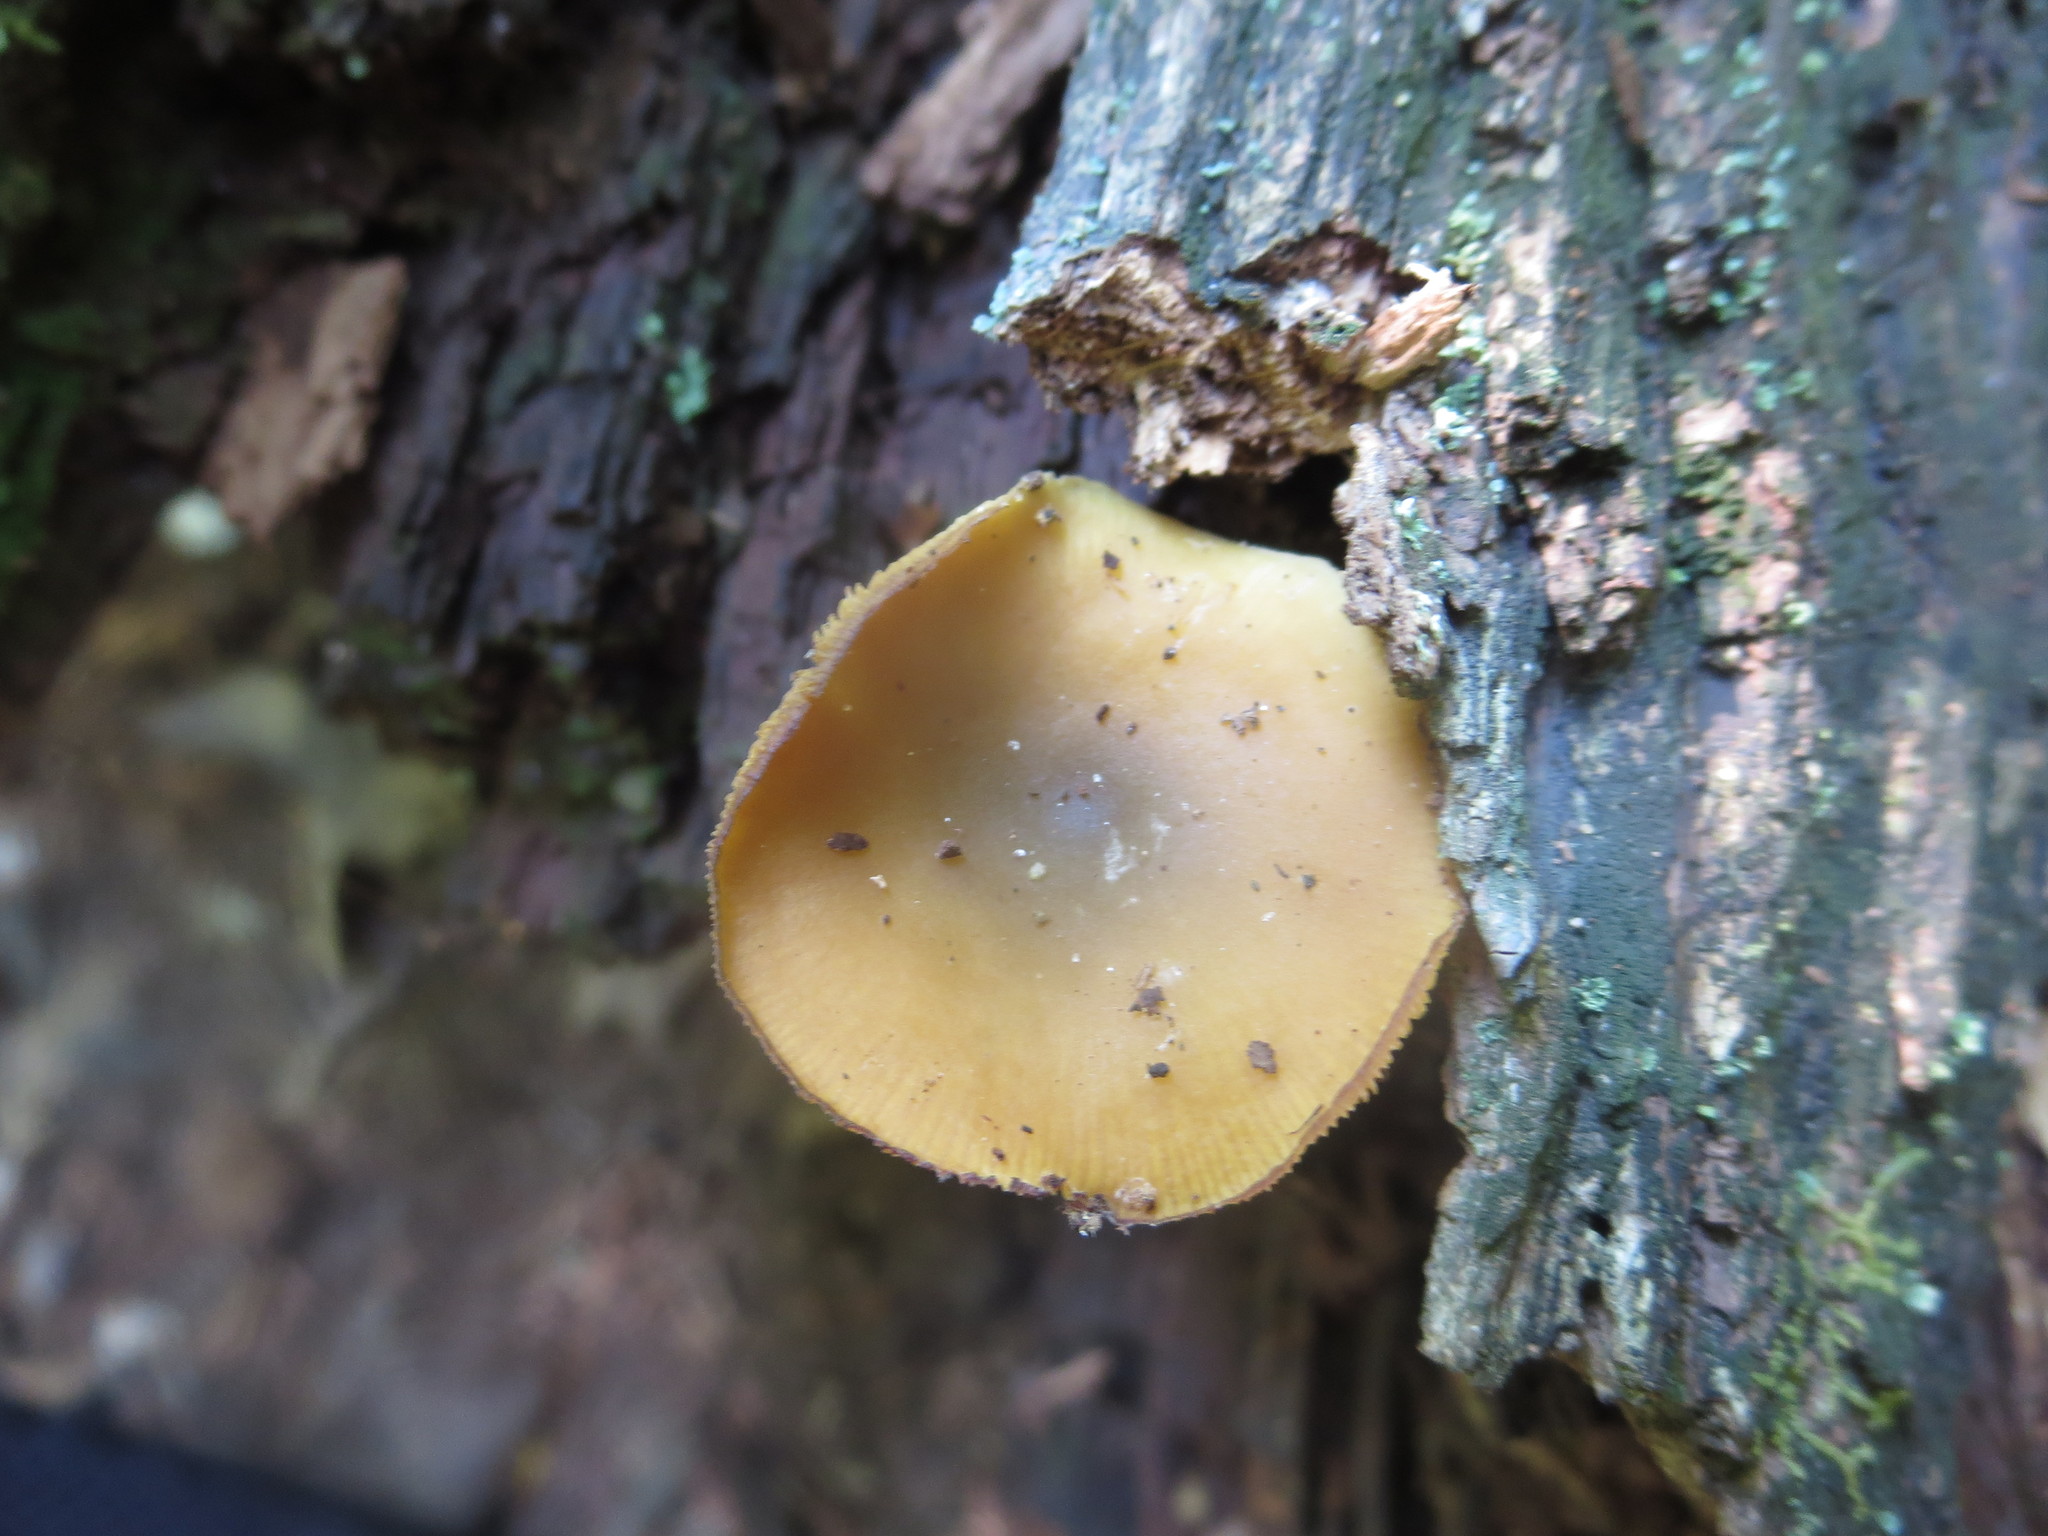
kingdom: Fungi
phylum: Basidiomycota
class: Agaricomycetes
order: Agaricales
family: Callistosporiaceae
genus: Callistosporium
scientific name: Callistosporium luteo-olivaceum
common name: Olive lute
